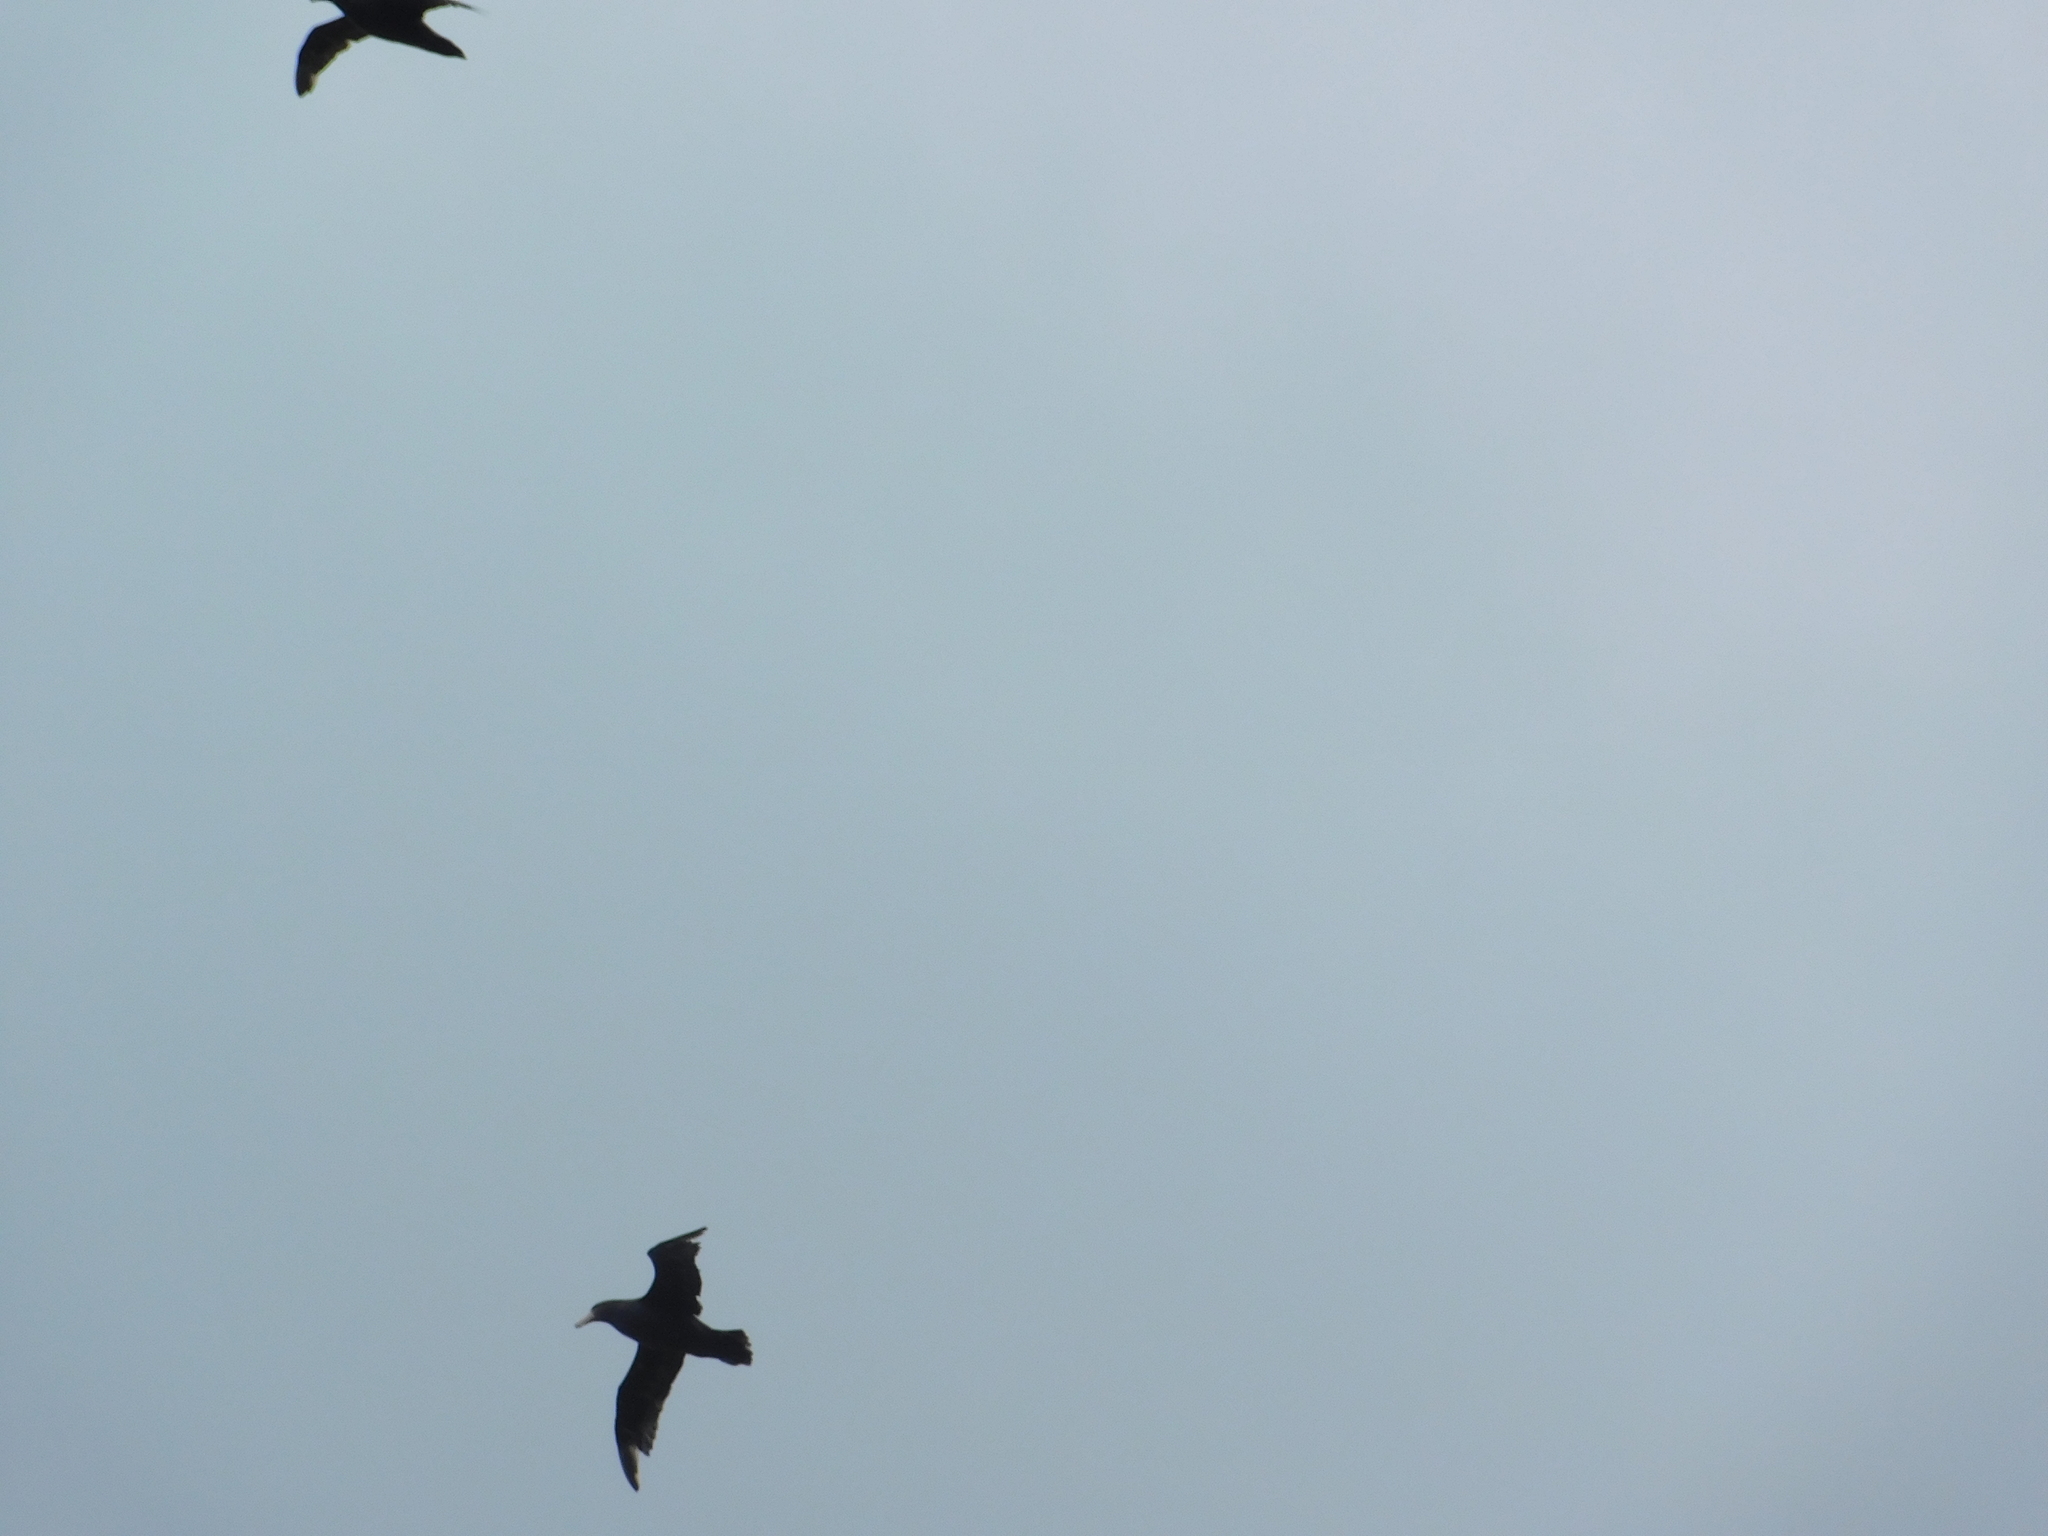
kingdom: Animalia
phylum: Chordata
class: Aves
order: Procellariiformes
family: Procellariidae
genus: Macronectes
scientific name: Macronectes giganteus
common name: Southern giant petrel
